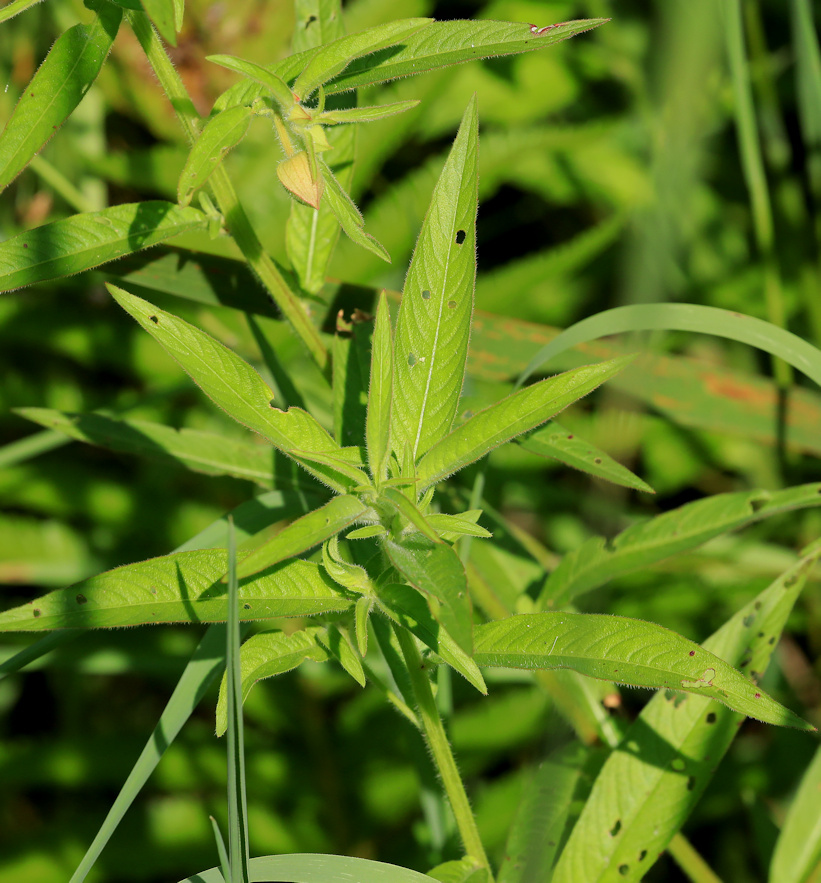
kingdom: Plantae
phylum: Tracheophyta
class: Magnoliopsida
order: Myrtales
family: Onagraceae
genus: Ludwigia
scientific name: Ludwigia octovalvis
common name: Water-primrose
